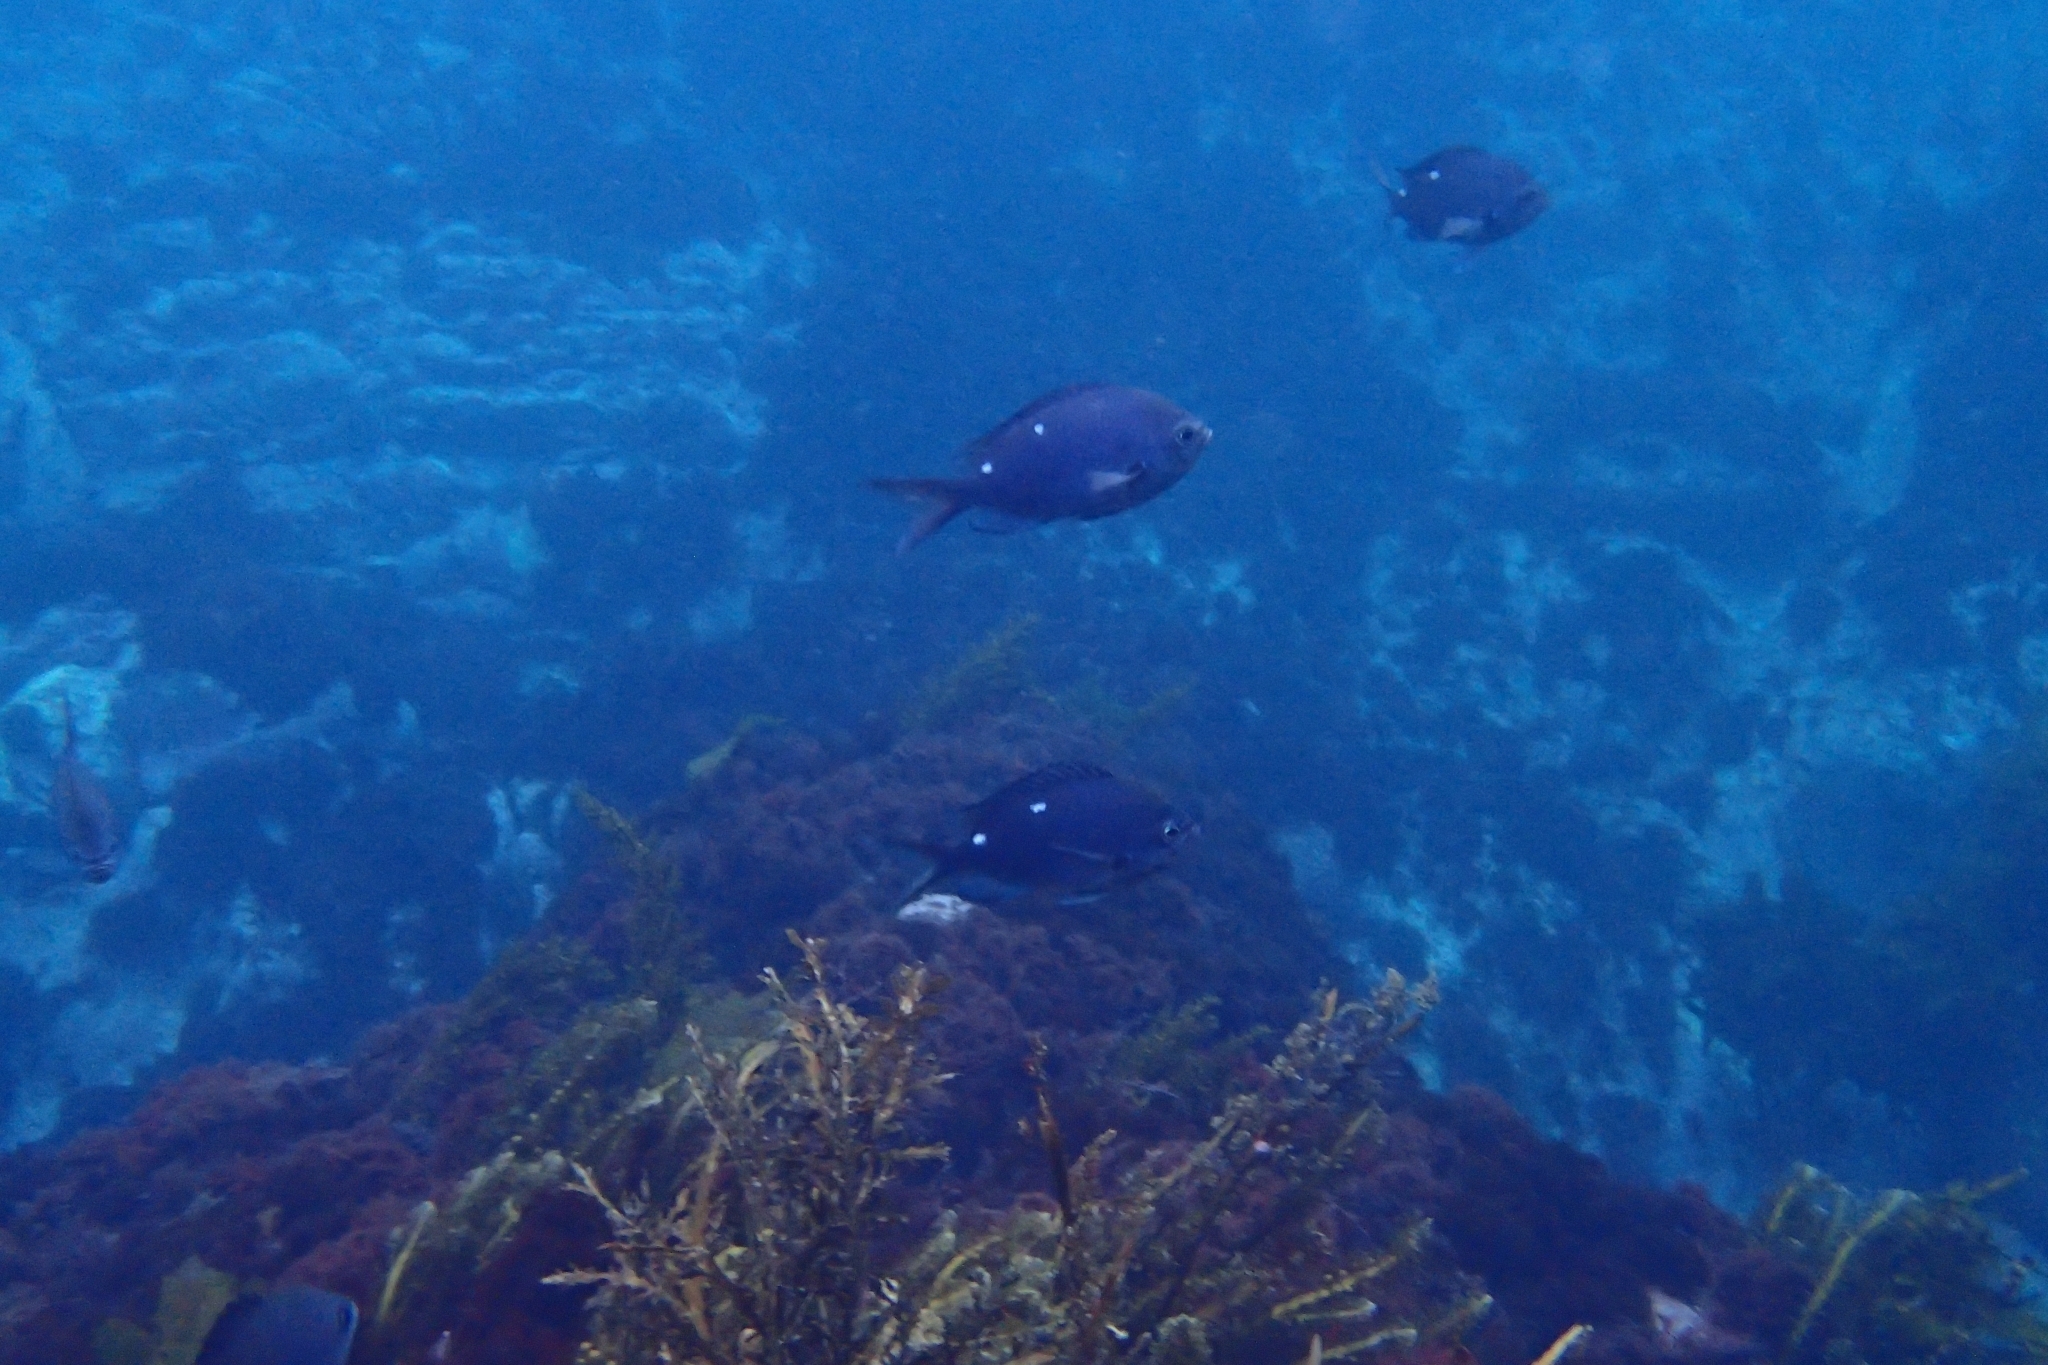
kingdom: Animalia
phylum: Chordata
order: Perciformes
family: Pomacentridae
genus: Chromis
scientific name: Chromis dispilus
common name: Demoiselle
